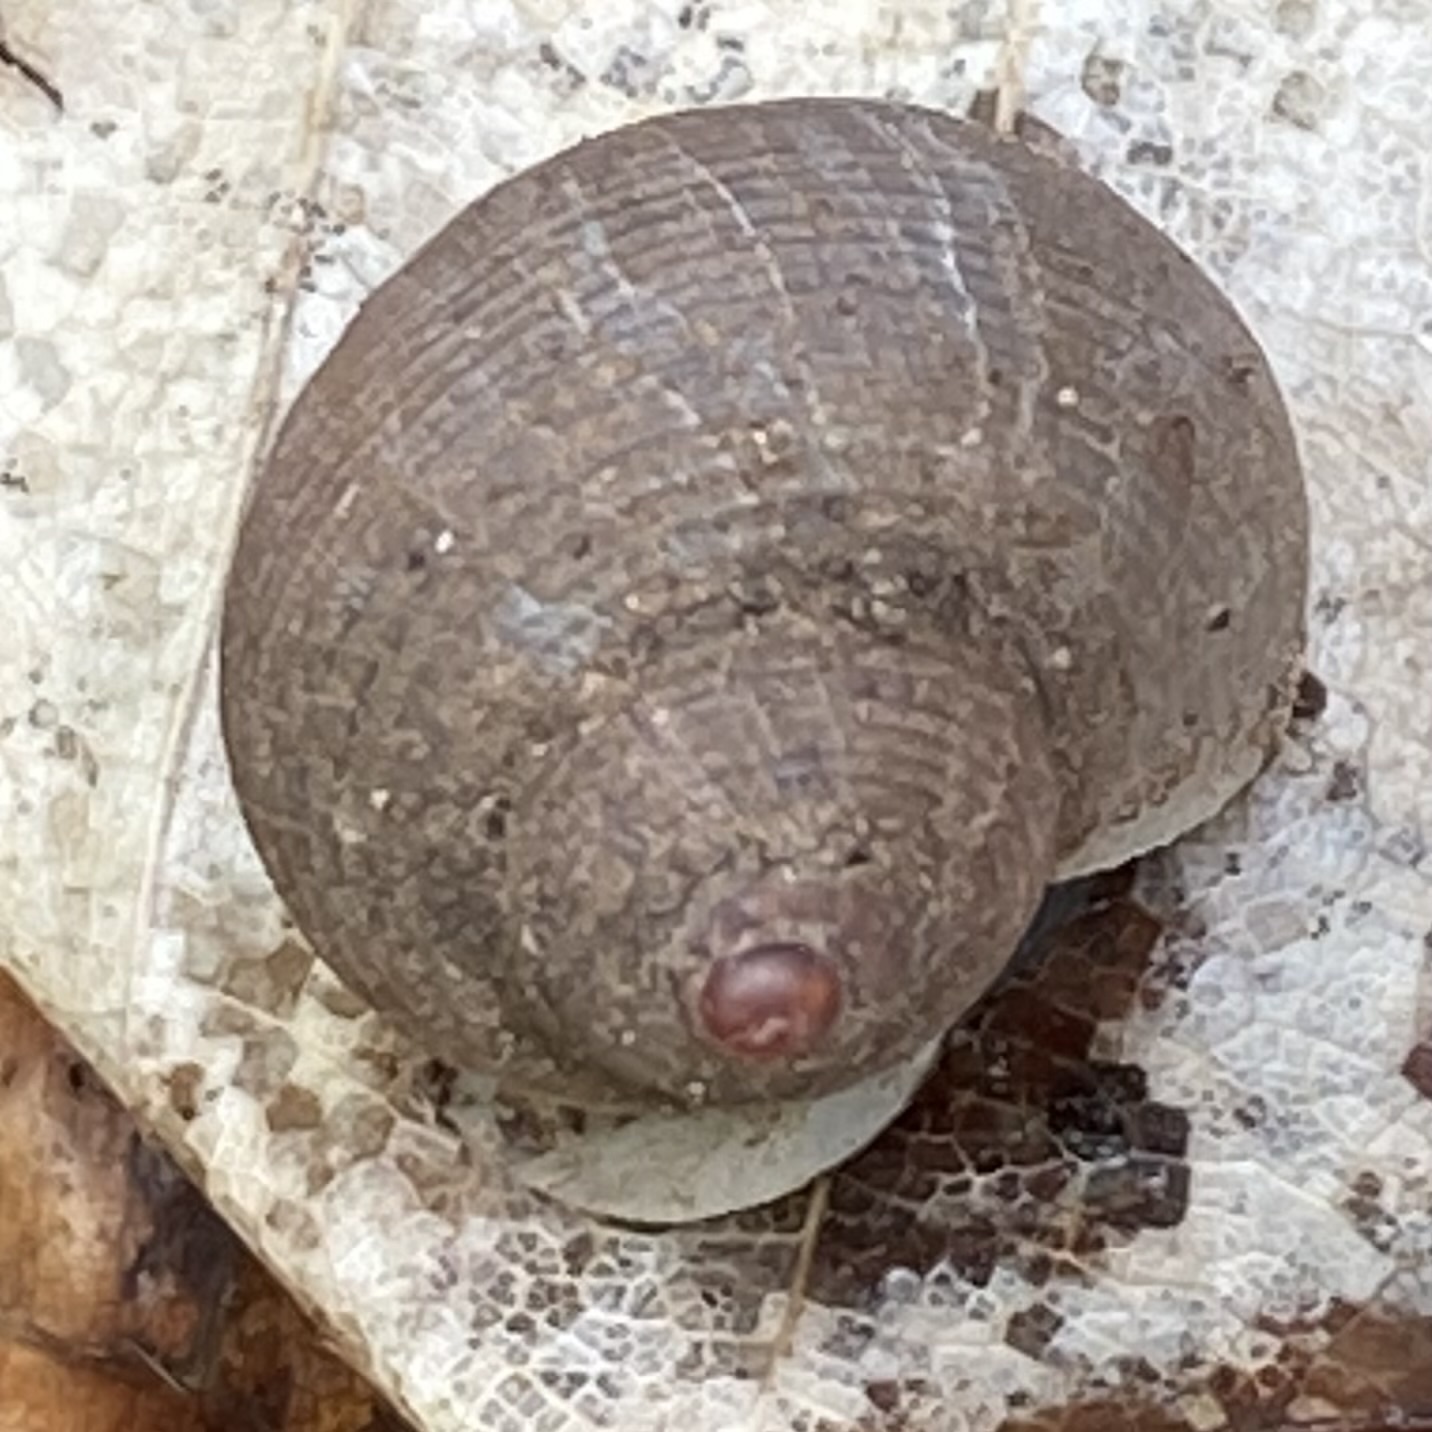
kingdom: Animalia
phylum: Mollusca
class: Gastropoda
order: Littorinimorpha
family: Pomatiidae
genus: Pomatias
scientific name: Pomatias rivularis
